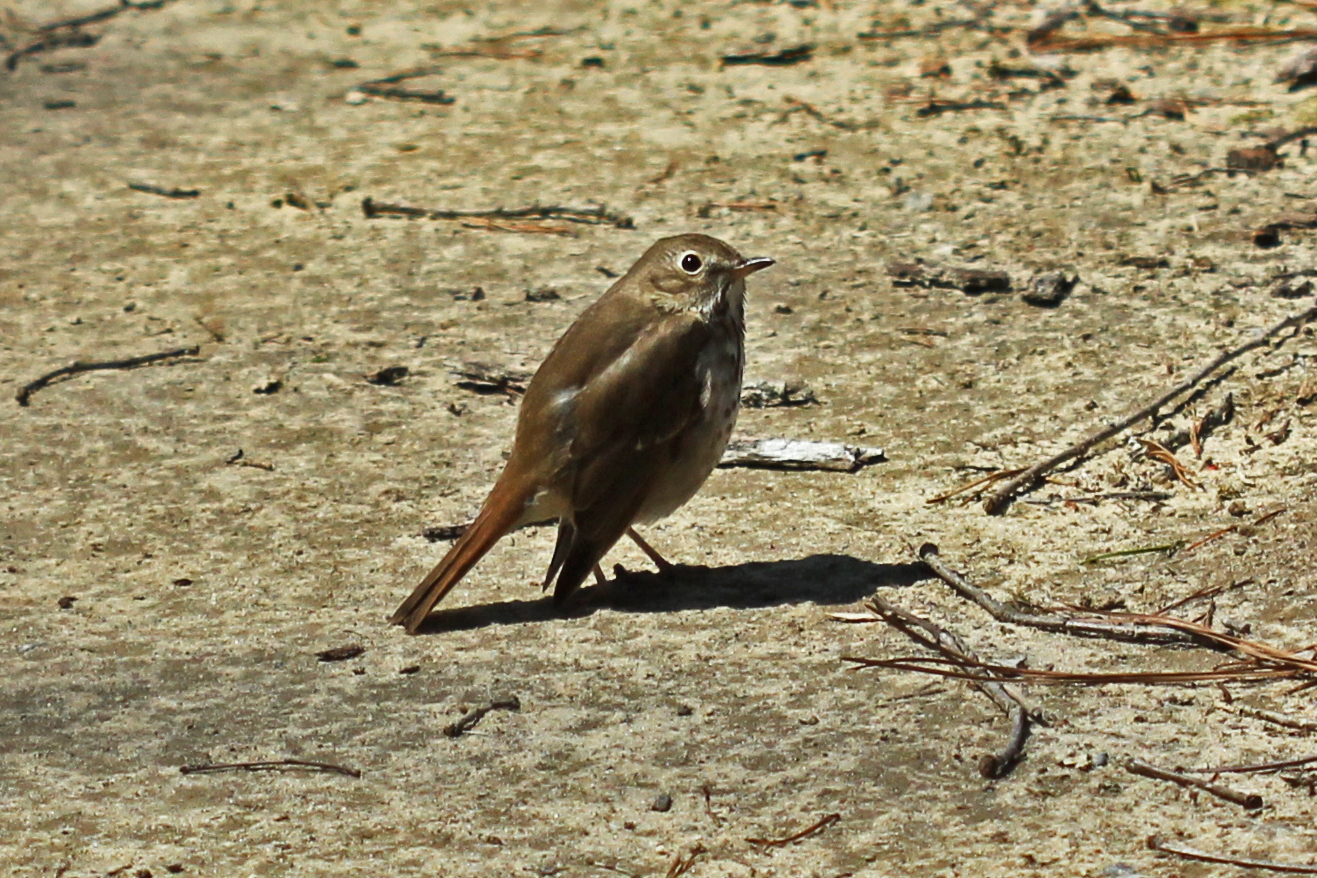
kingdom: Animalia
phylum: Chordata
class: Aves
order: Passeriformes
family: Turdidae
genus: Catharus
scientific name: Catharus guttatus
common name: Hermit thrush
